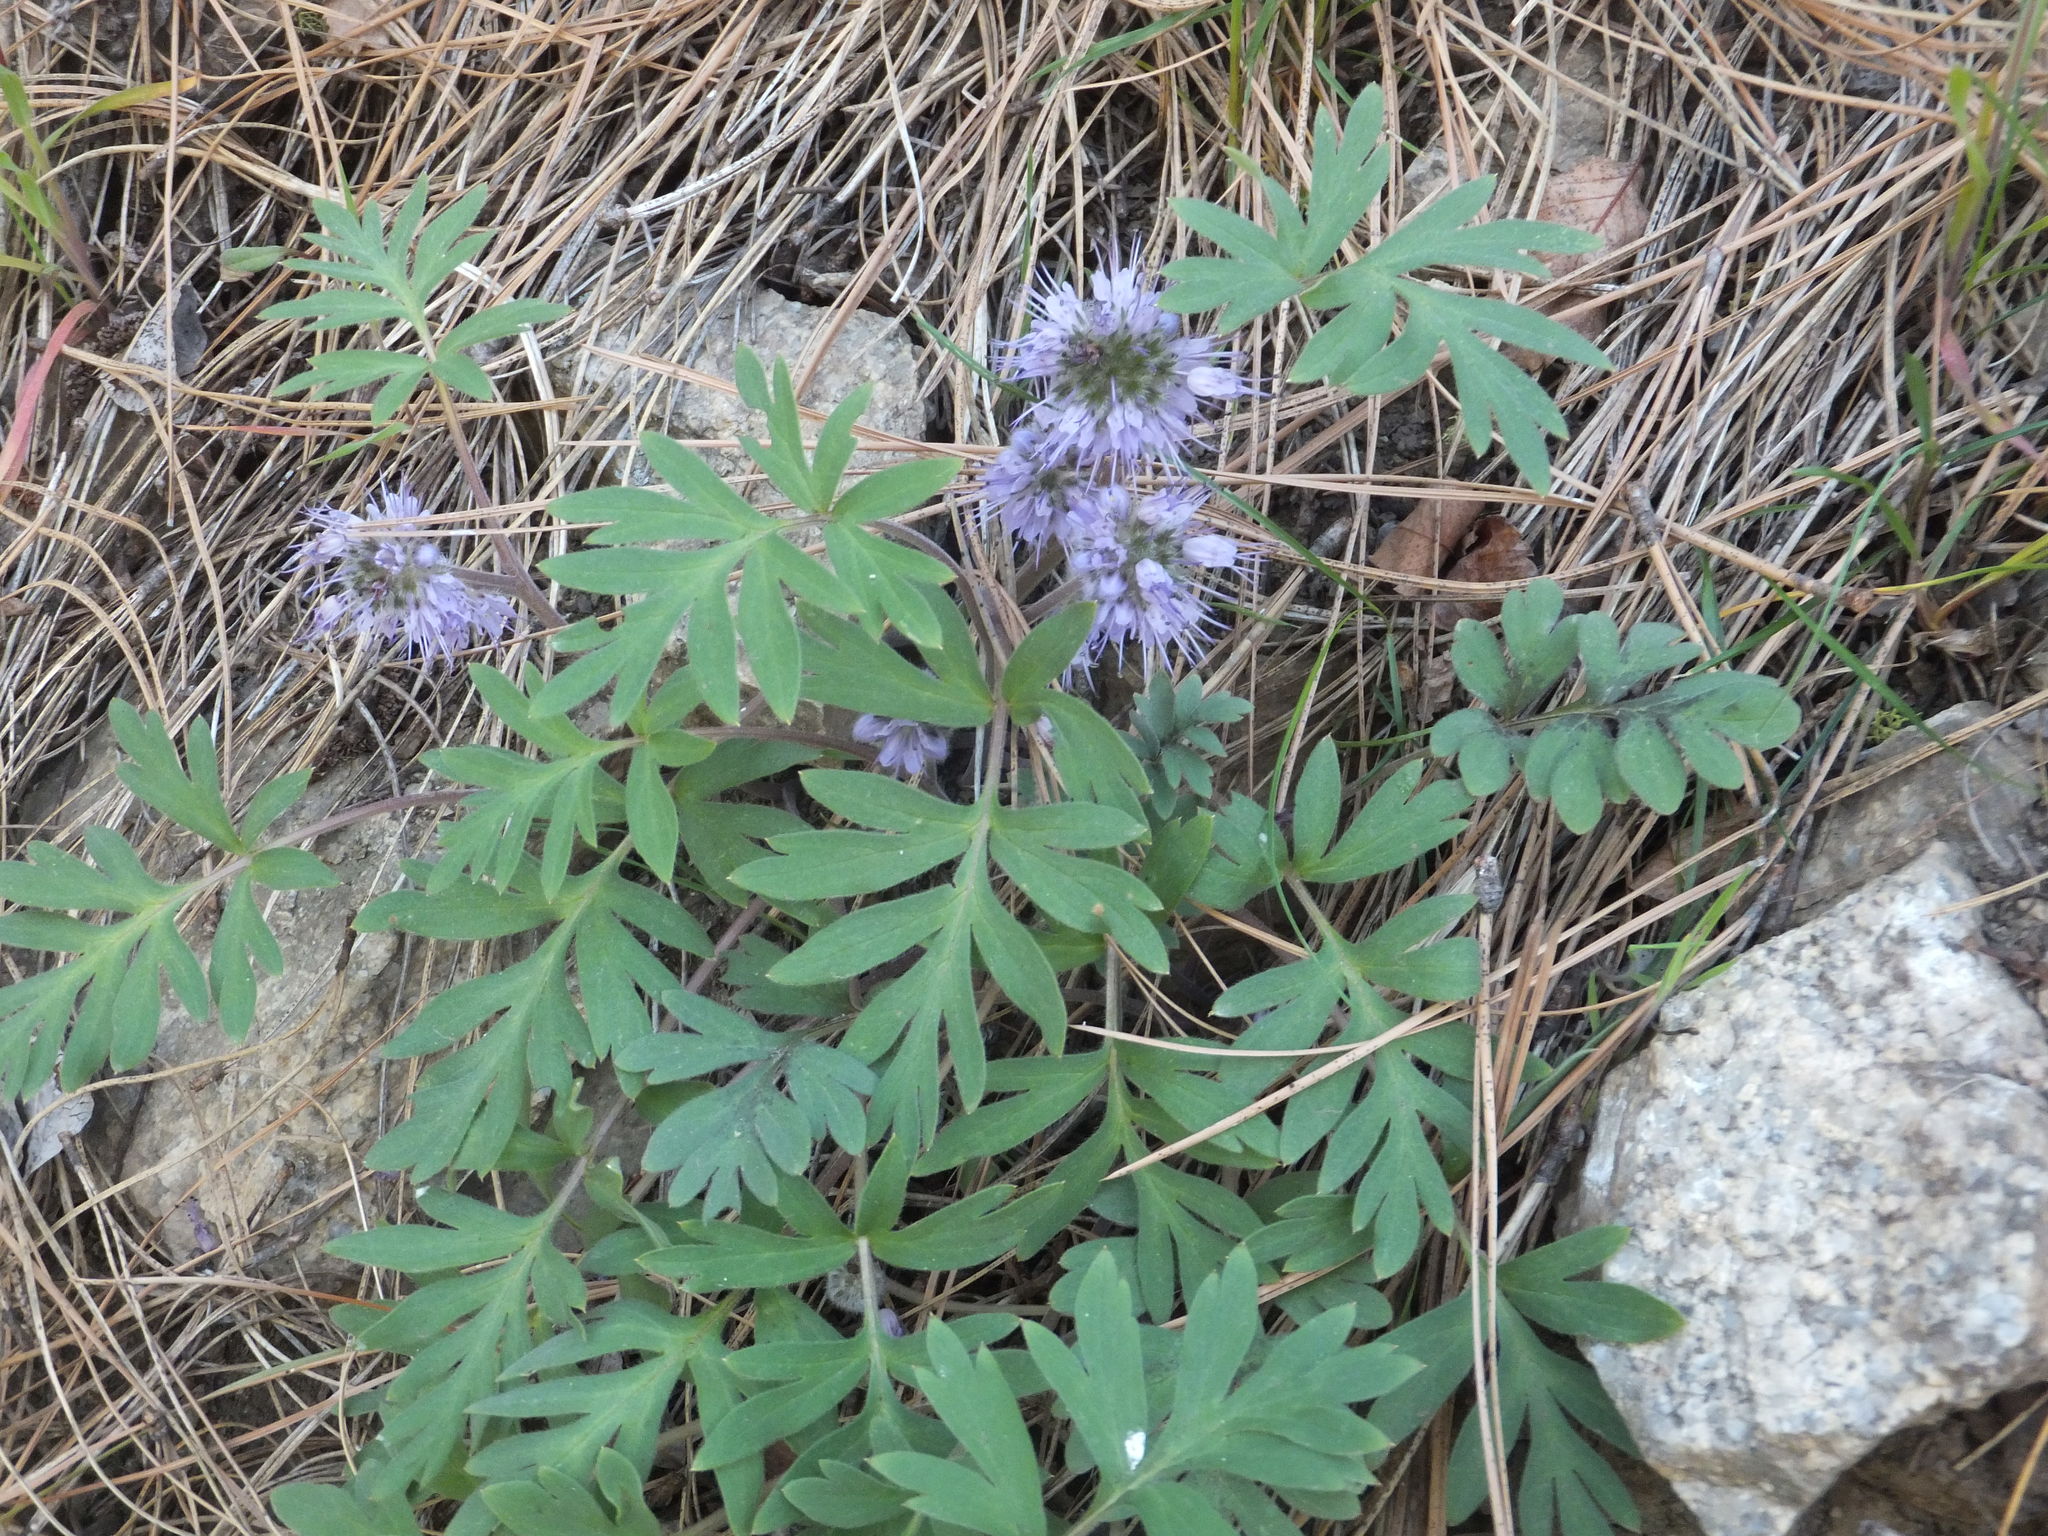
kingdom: Plantae
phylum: Tracheophyta
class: Magnoliopsida
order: Boraginales
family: Hydrophyllaceae
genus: Hydrophyllum
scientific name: Hydrophyllum capitatum
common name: Woollen-breeches
